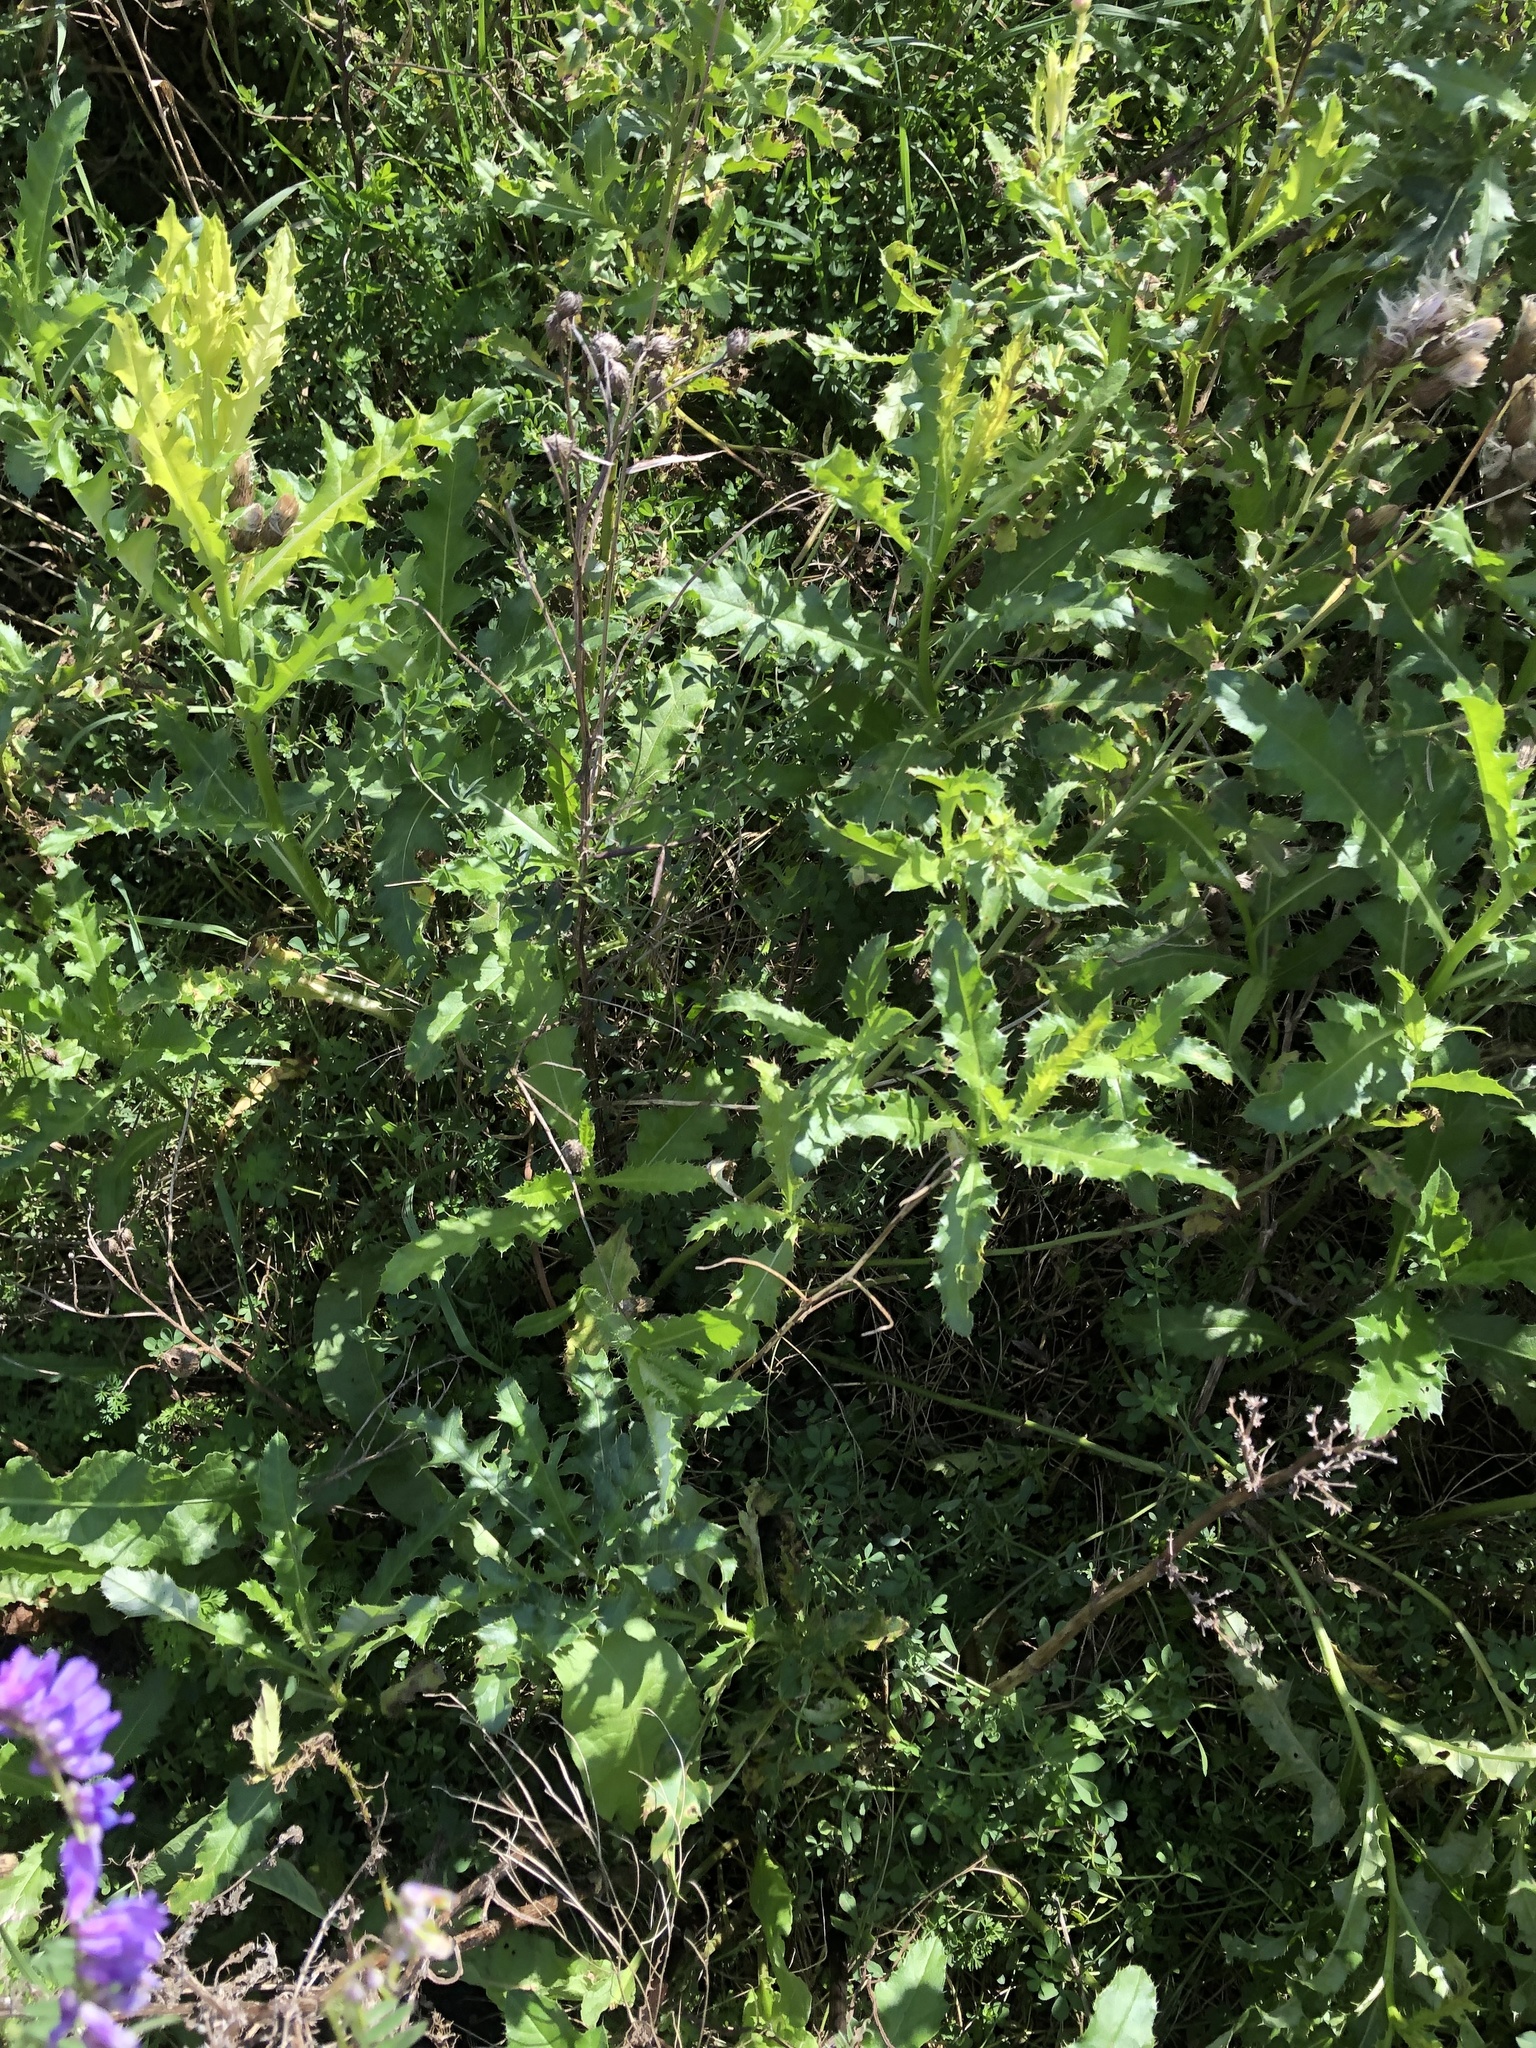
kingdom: Plantae
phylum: Tracheophyta
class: Magnoliopsida
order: Asterales
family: Asteraceae
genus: Cirsium
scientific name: Cirsium arvense
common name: Creeping thistle
